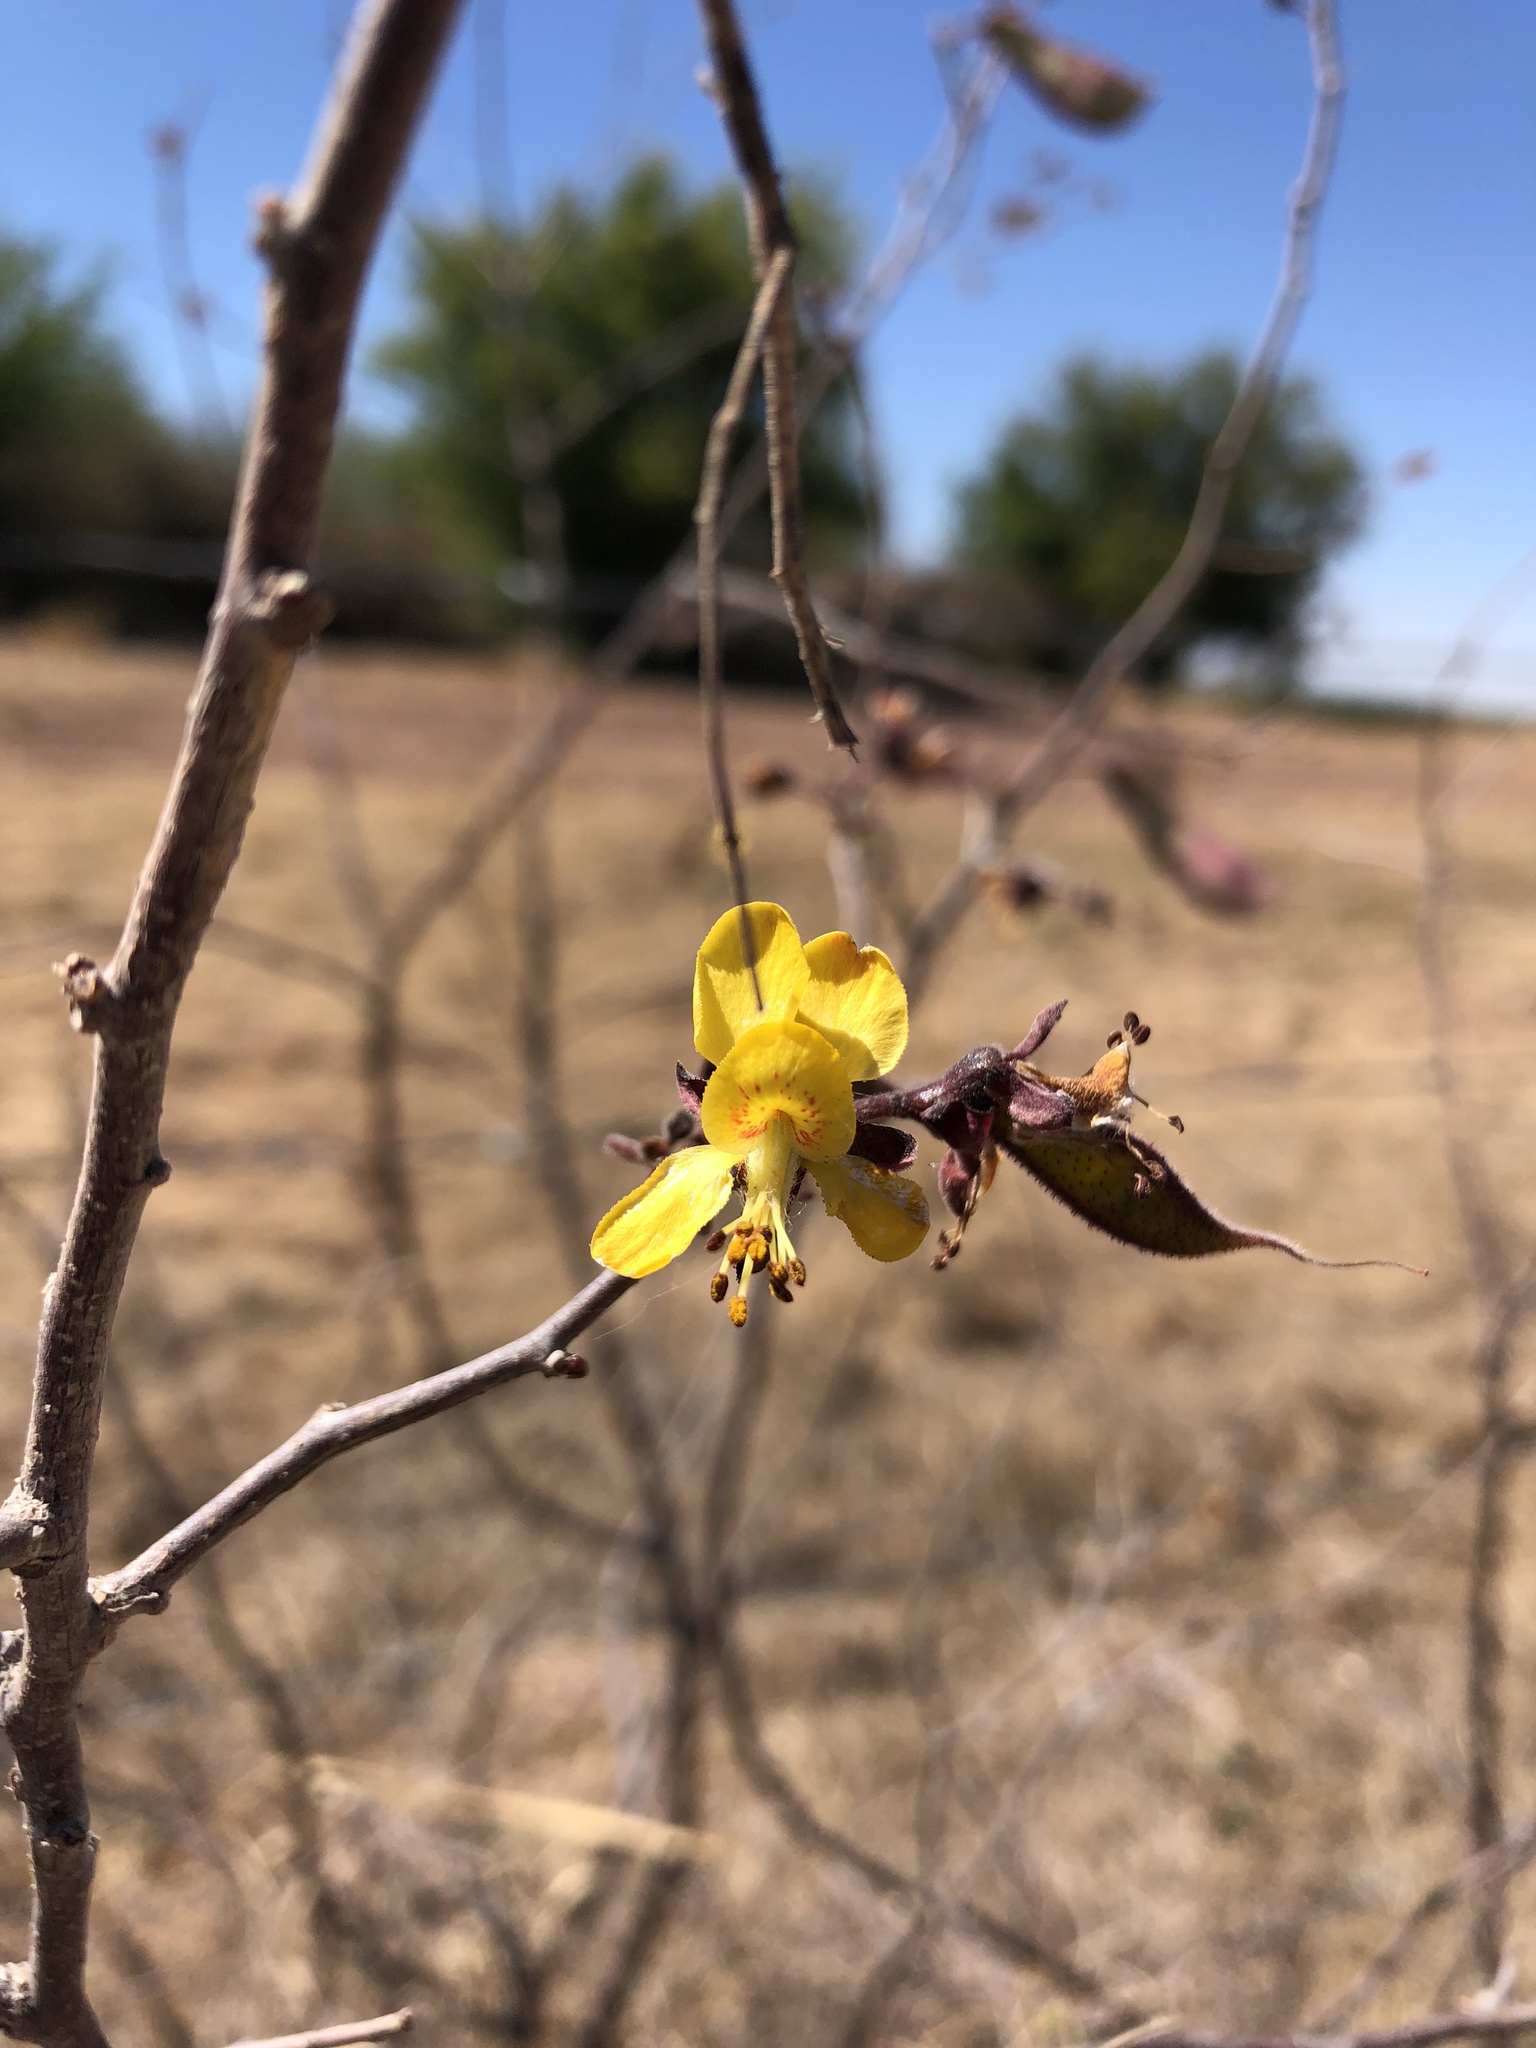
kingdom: Plantae
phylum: Tracheophyta
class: Magnoliopsida
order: Fabales
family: Fabaceae
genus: Erythrostemon
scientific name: Erythrostemon palmeri
